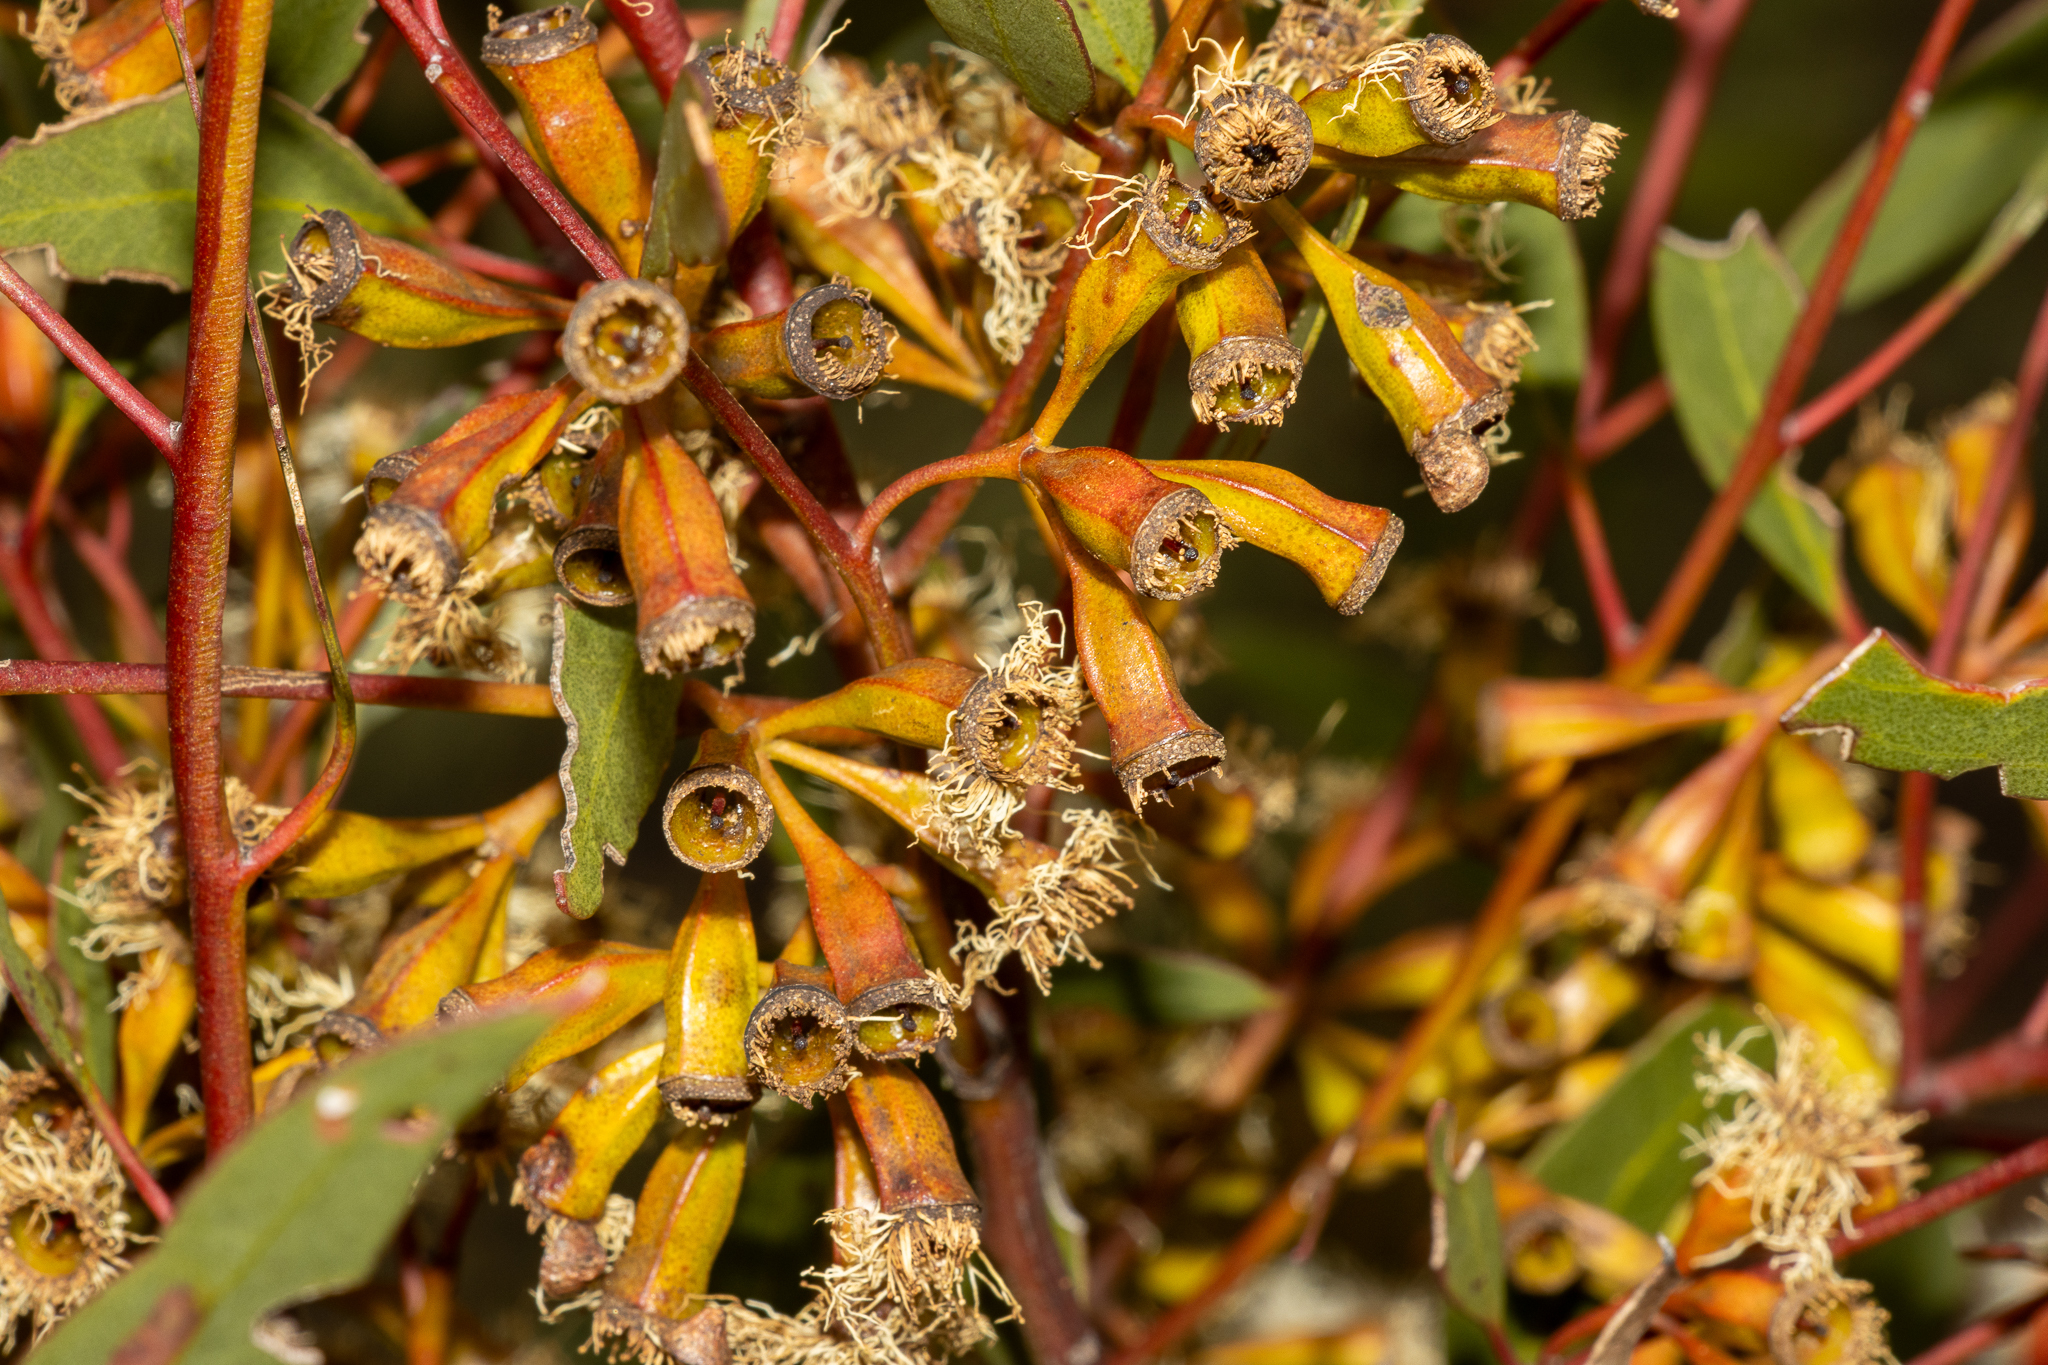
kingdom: Plantae
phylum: Tracheophyta
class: Magnoliopsida
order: Myrtales
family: Myrtaceae
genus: Eucalyptus
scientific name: Eucalyptus calycogona
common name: Marvel mallee
